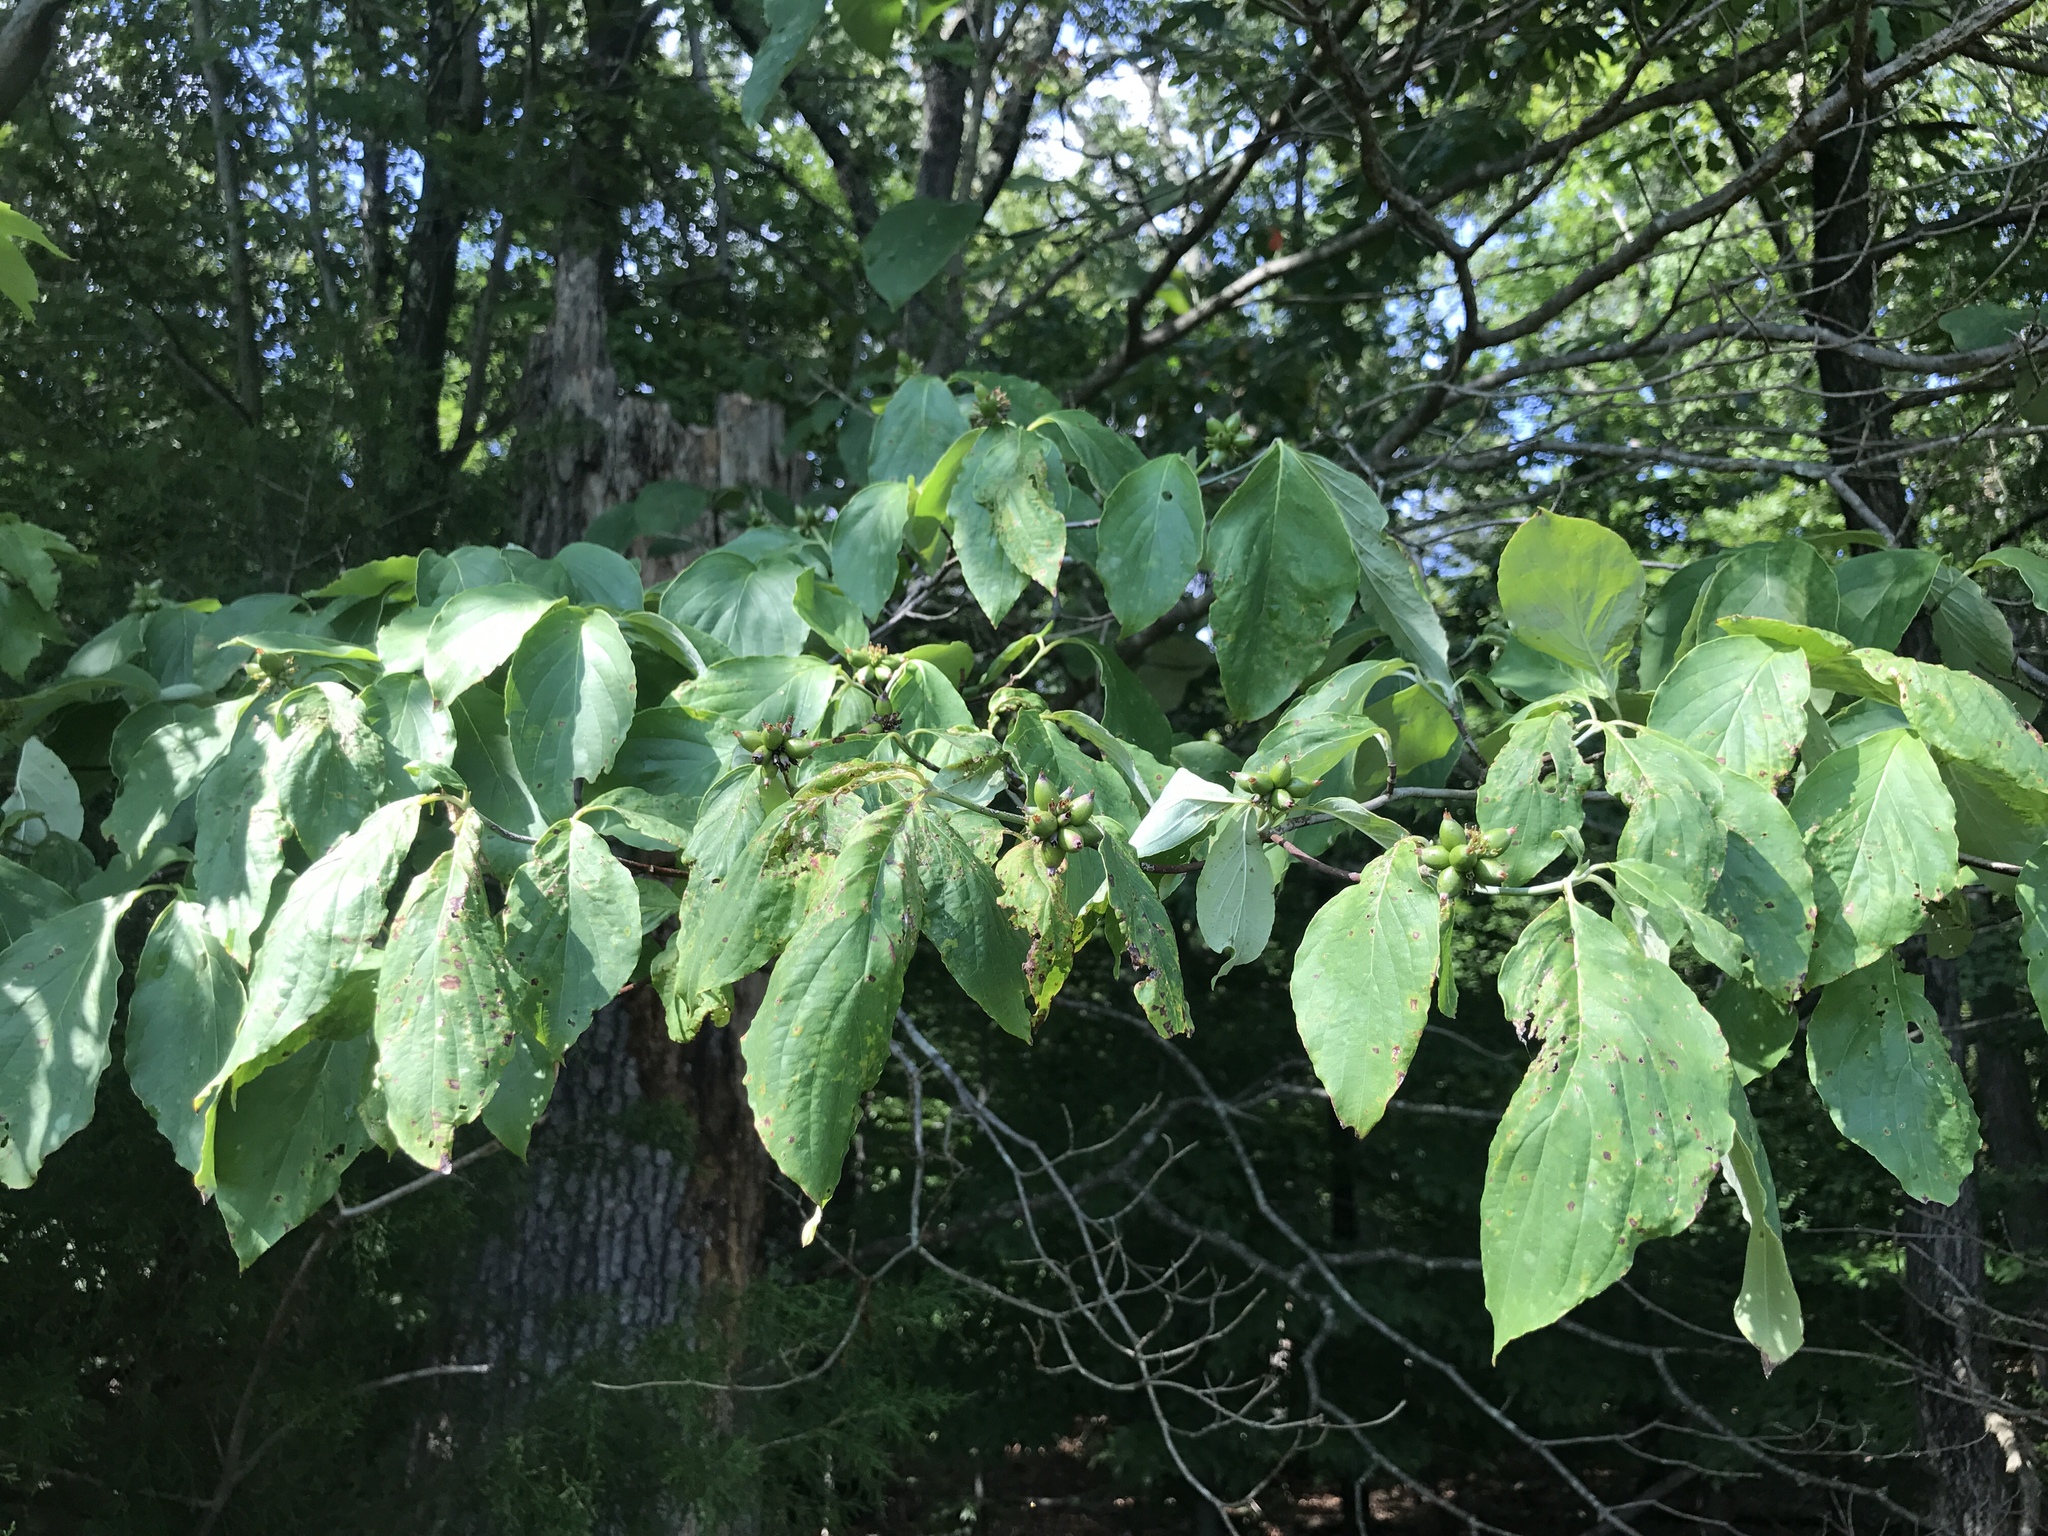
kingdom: Plantae
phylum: Tracheophyta
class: Magnoliopsida
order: Cornales
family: Cornaceae
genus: Cornus
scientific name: Cornus florida
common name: Flowering dogwood
